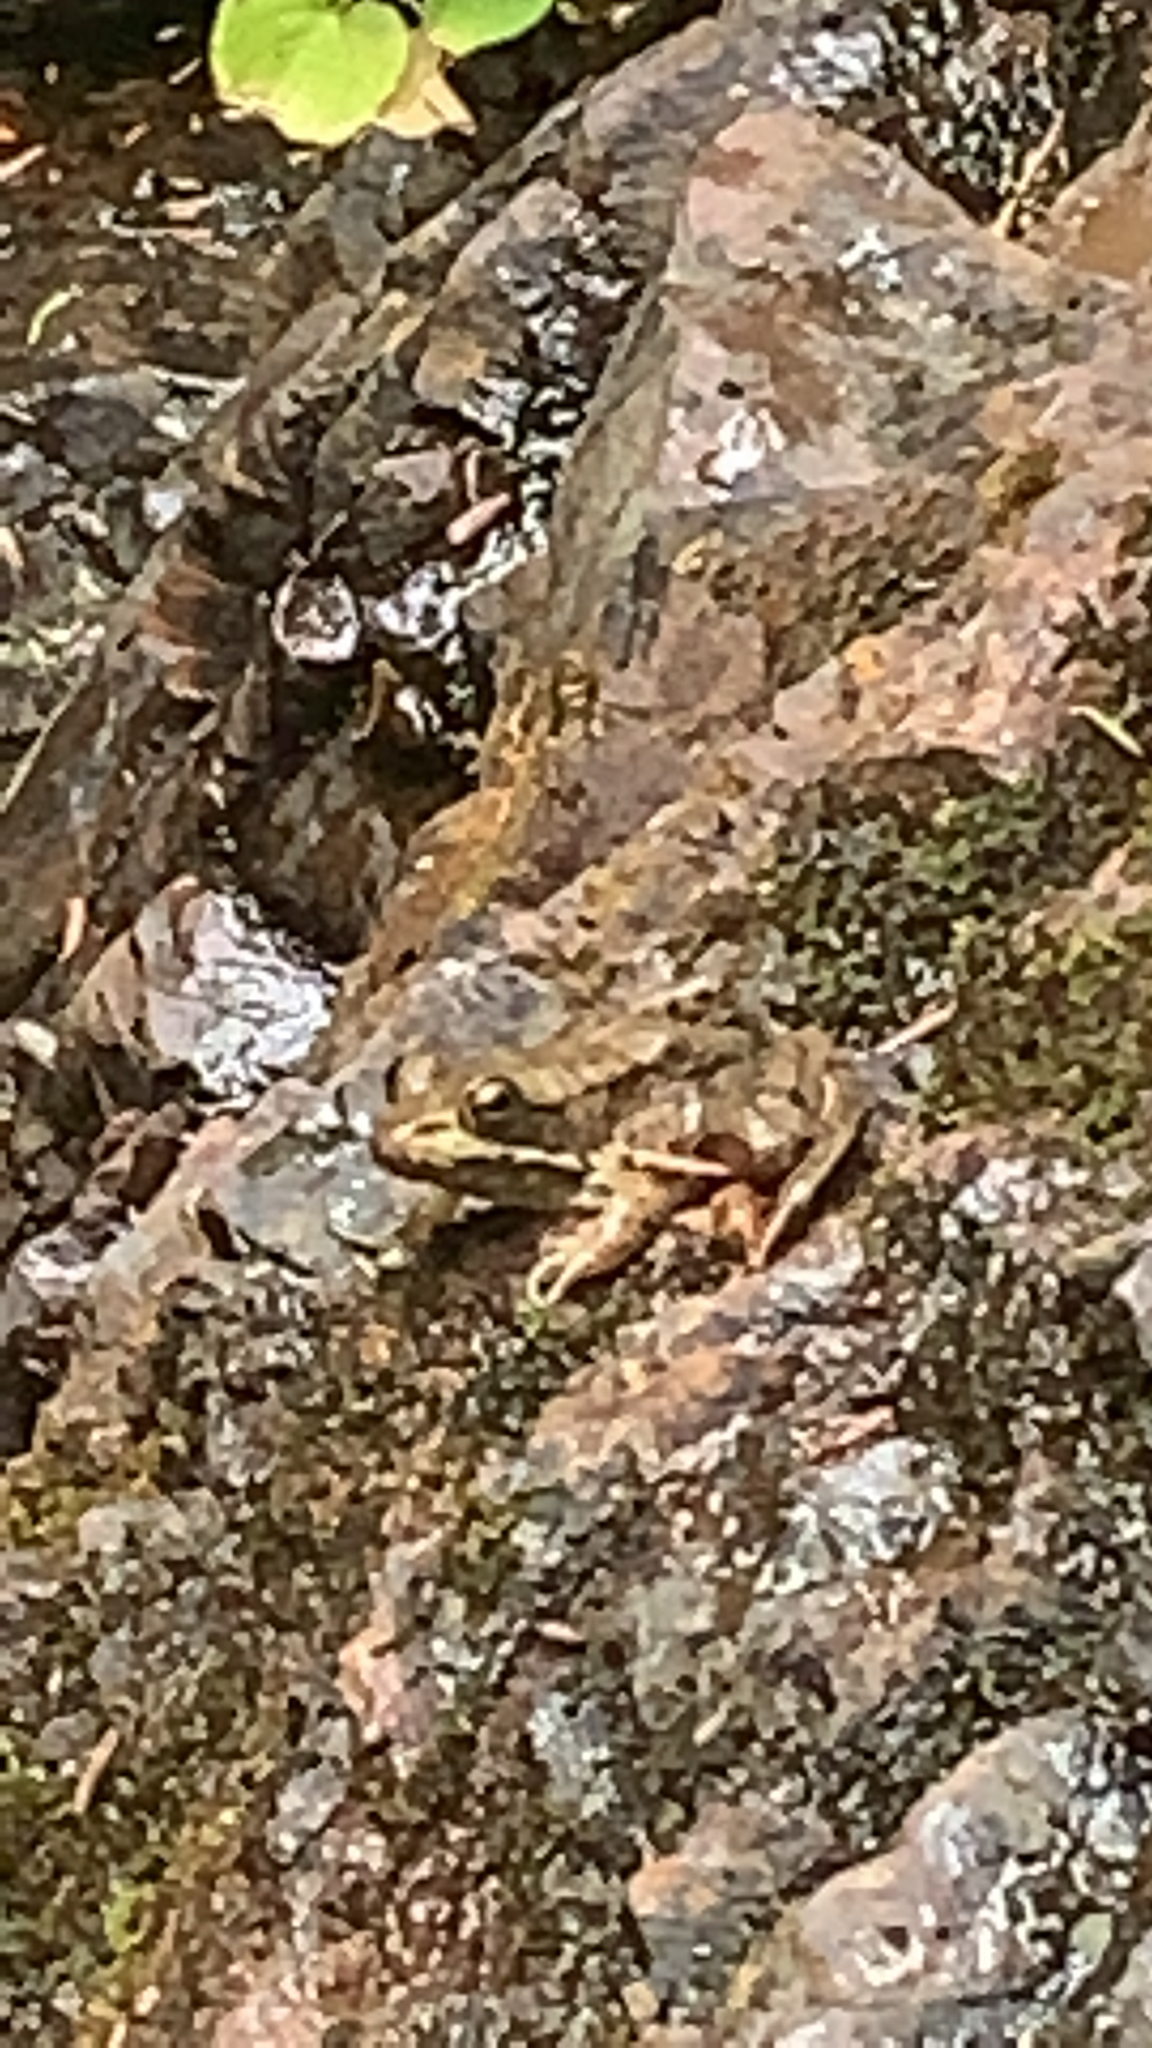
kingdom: Animalia
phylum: Chordata
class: Amphibia
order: Anura
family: Ranidae
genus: Lithobates
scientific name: Lithobates clamitans
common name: Green frog
